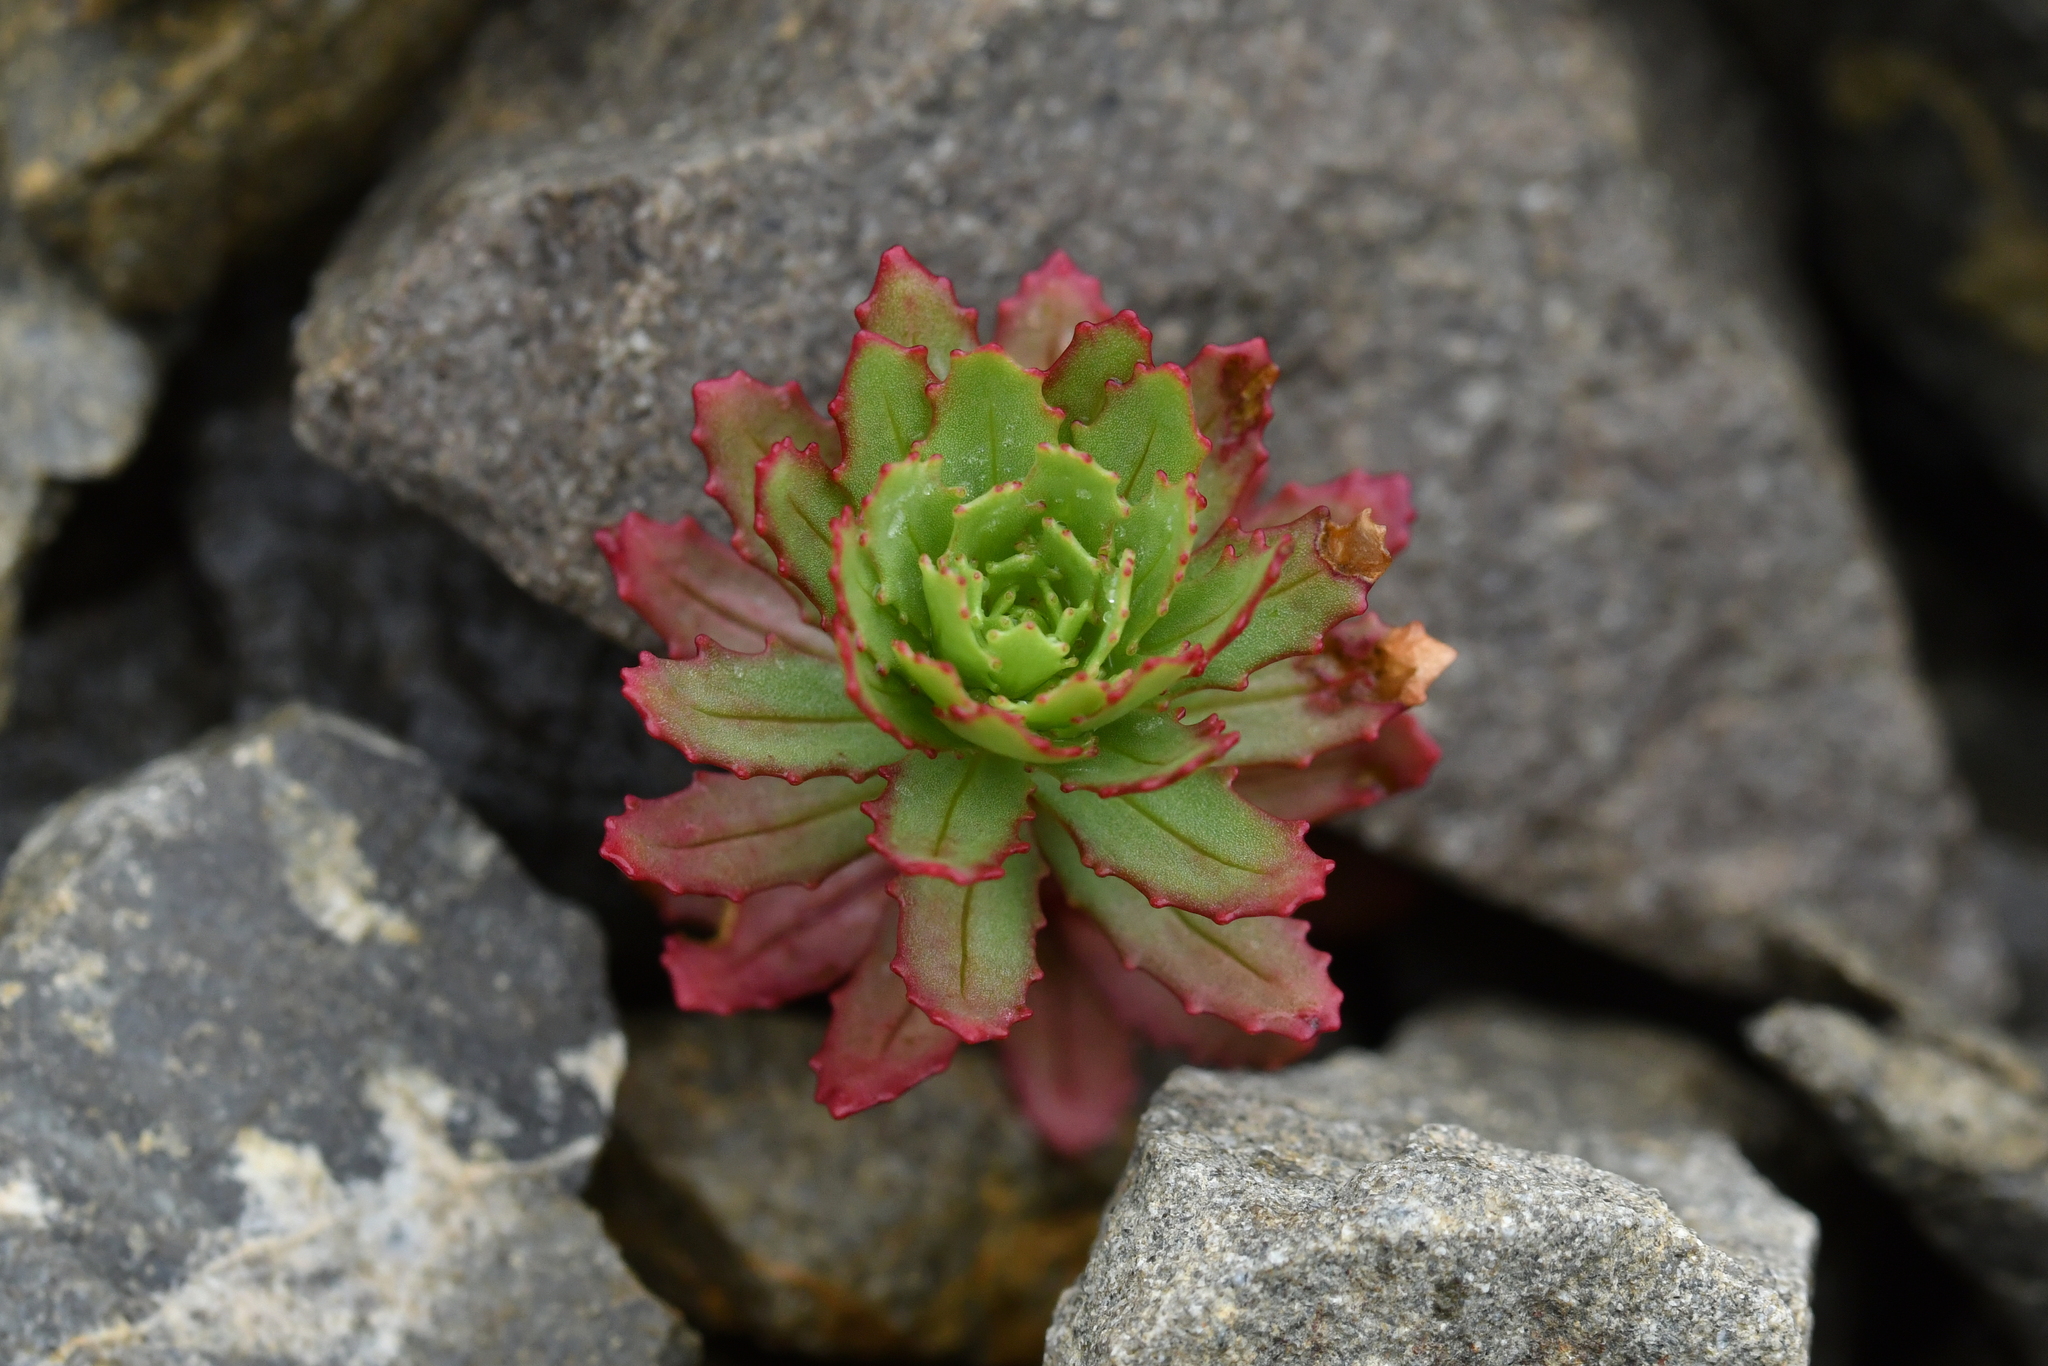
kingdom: Plantae
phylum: Tracheophyta
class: Magnoliopsida
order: Myrtales
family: Onagraceae
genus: Epilobium
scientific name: Epilobium pycnostachyum
